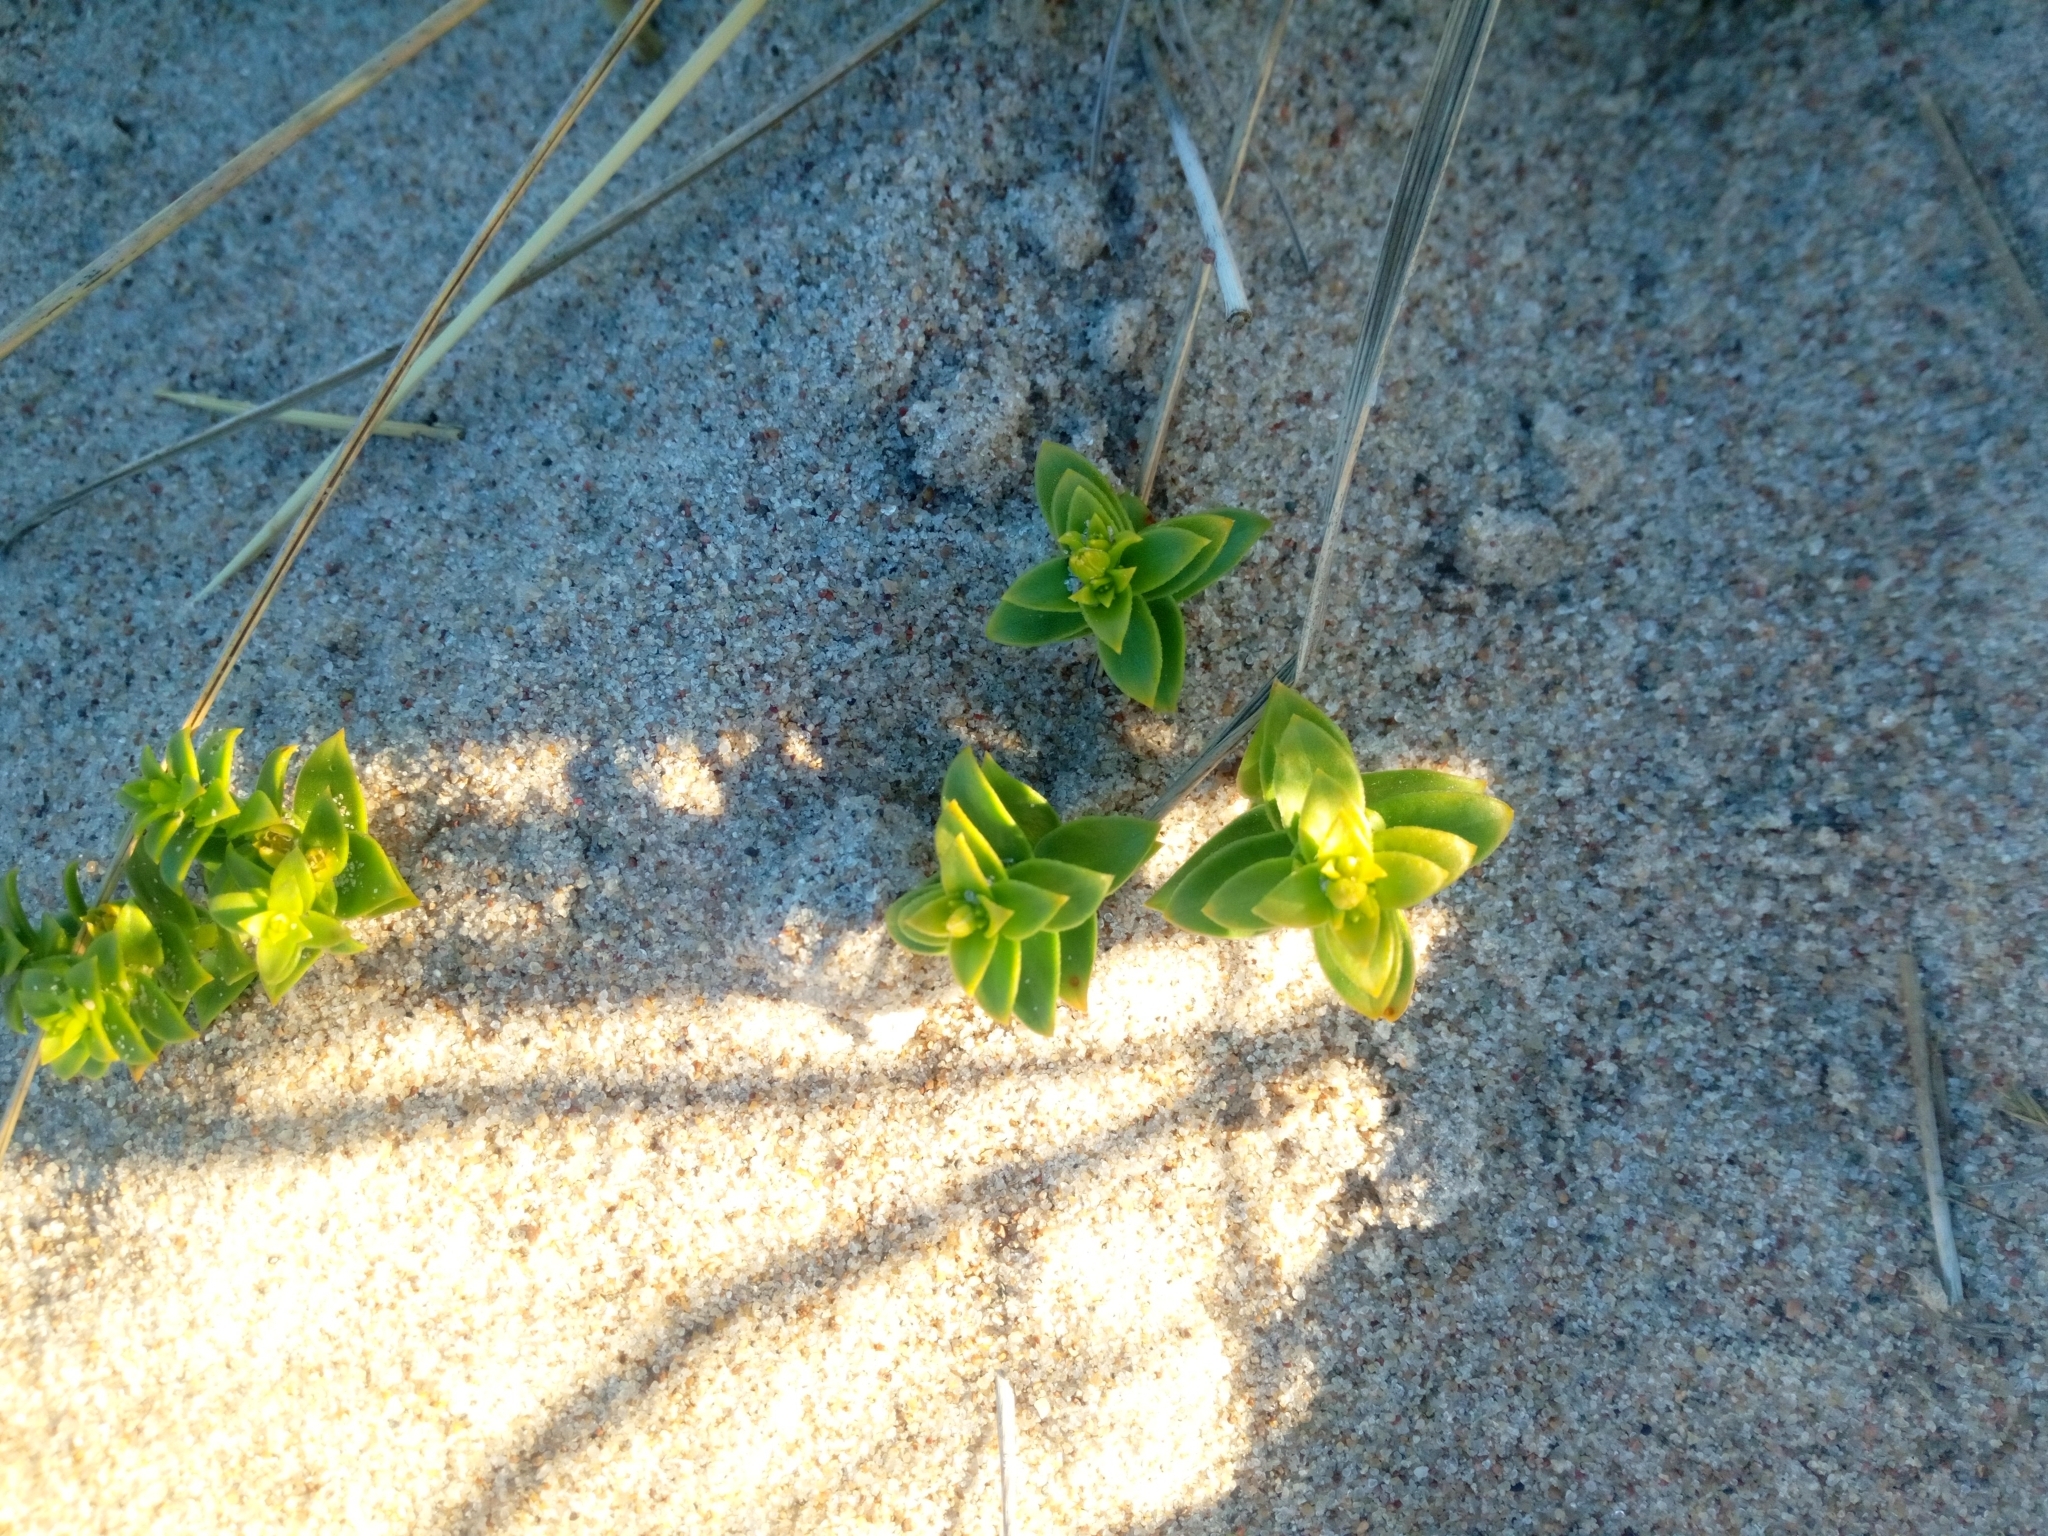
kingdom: Plantae
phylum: Tracheophyta
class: Magnoliopsida
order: Caryophyllales
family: Caryophyllaceae
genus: Honckenya
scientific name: Honckenya peploides
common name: Sea sandwort
